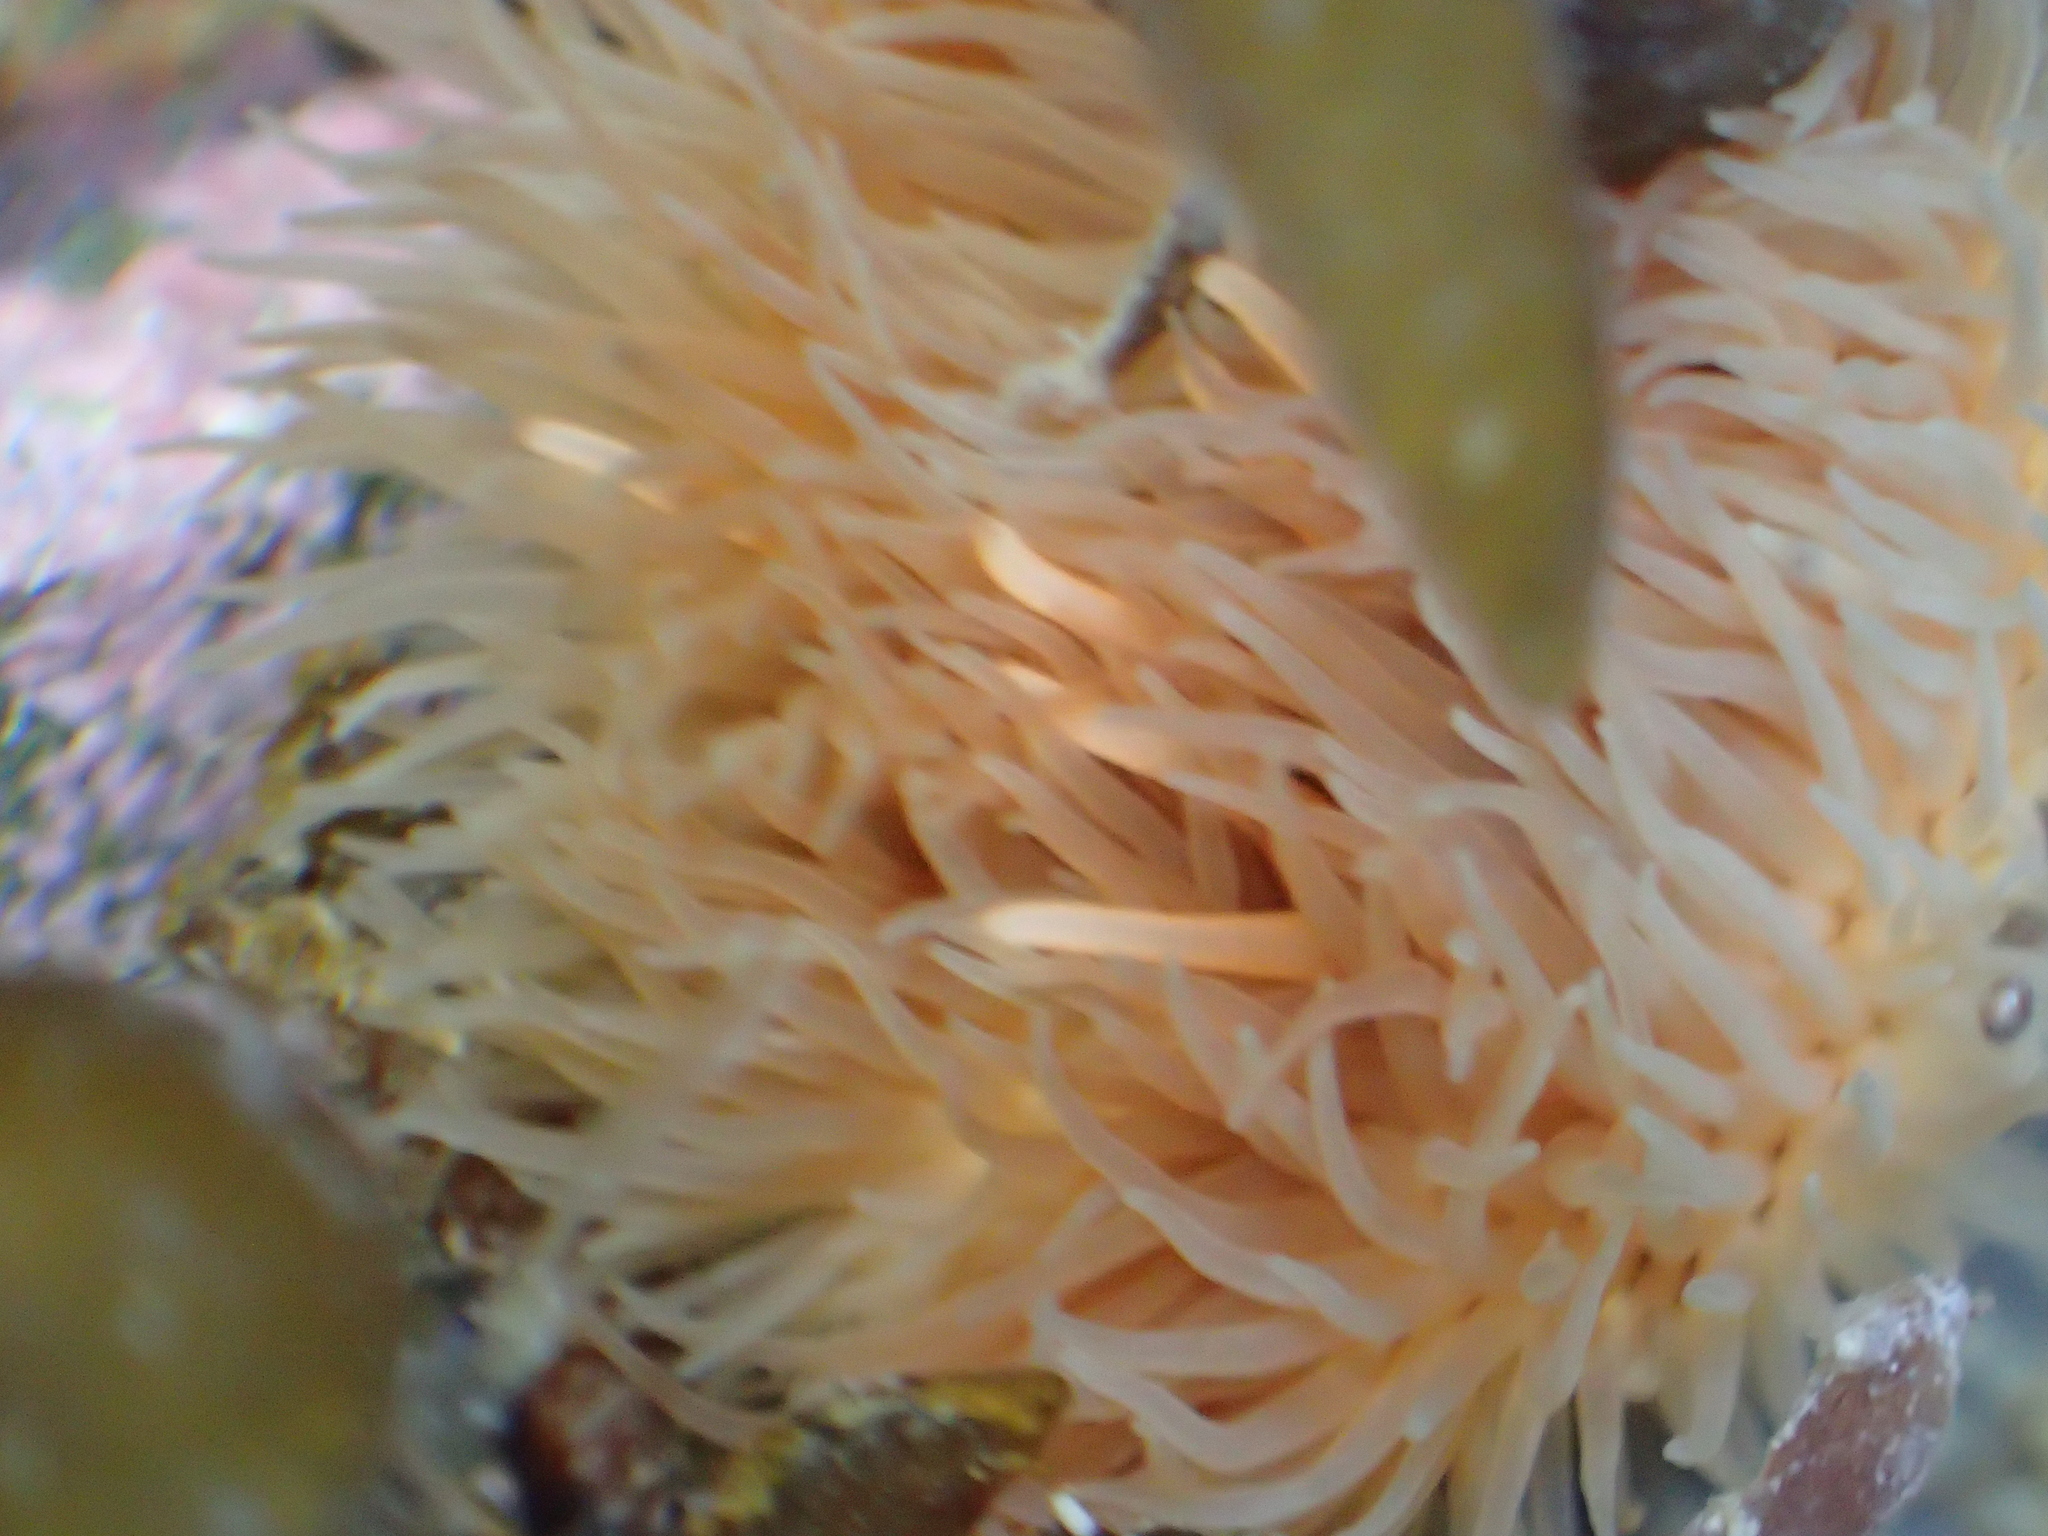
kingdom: Animalia
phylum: Cnidaria
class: Anthozoa
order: Actiniaria
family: Diadumenidae
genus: Diadumene
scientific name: Diadumene neozelanica
